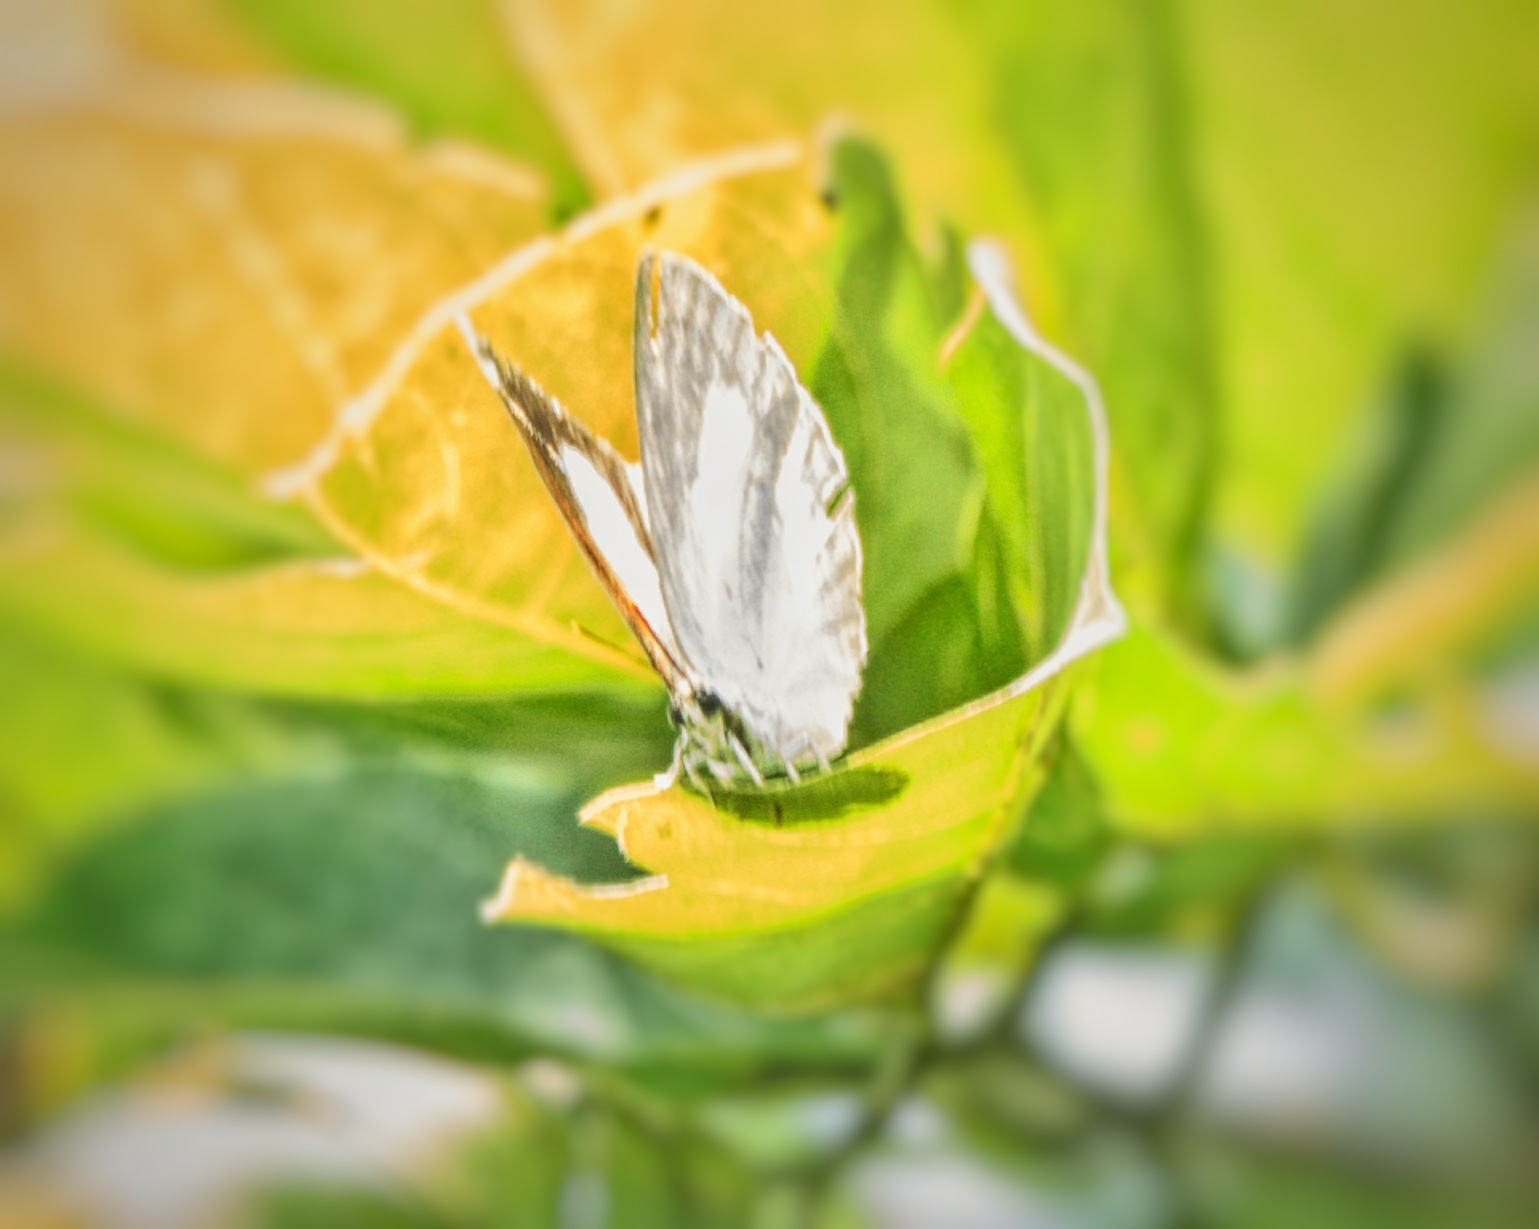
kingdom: Animalia
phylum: Arthropoda
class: Insecta
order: Lepidoptera
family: Lycaenidae
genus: Curetis
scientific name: Curetis thetis
